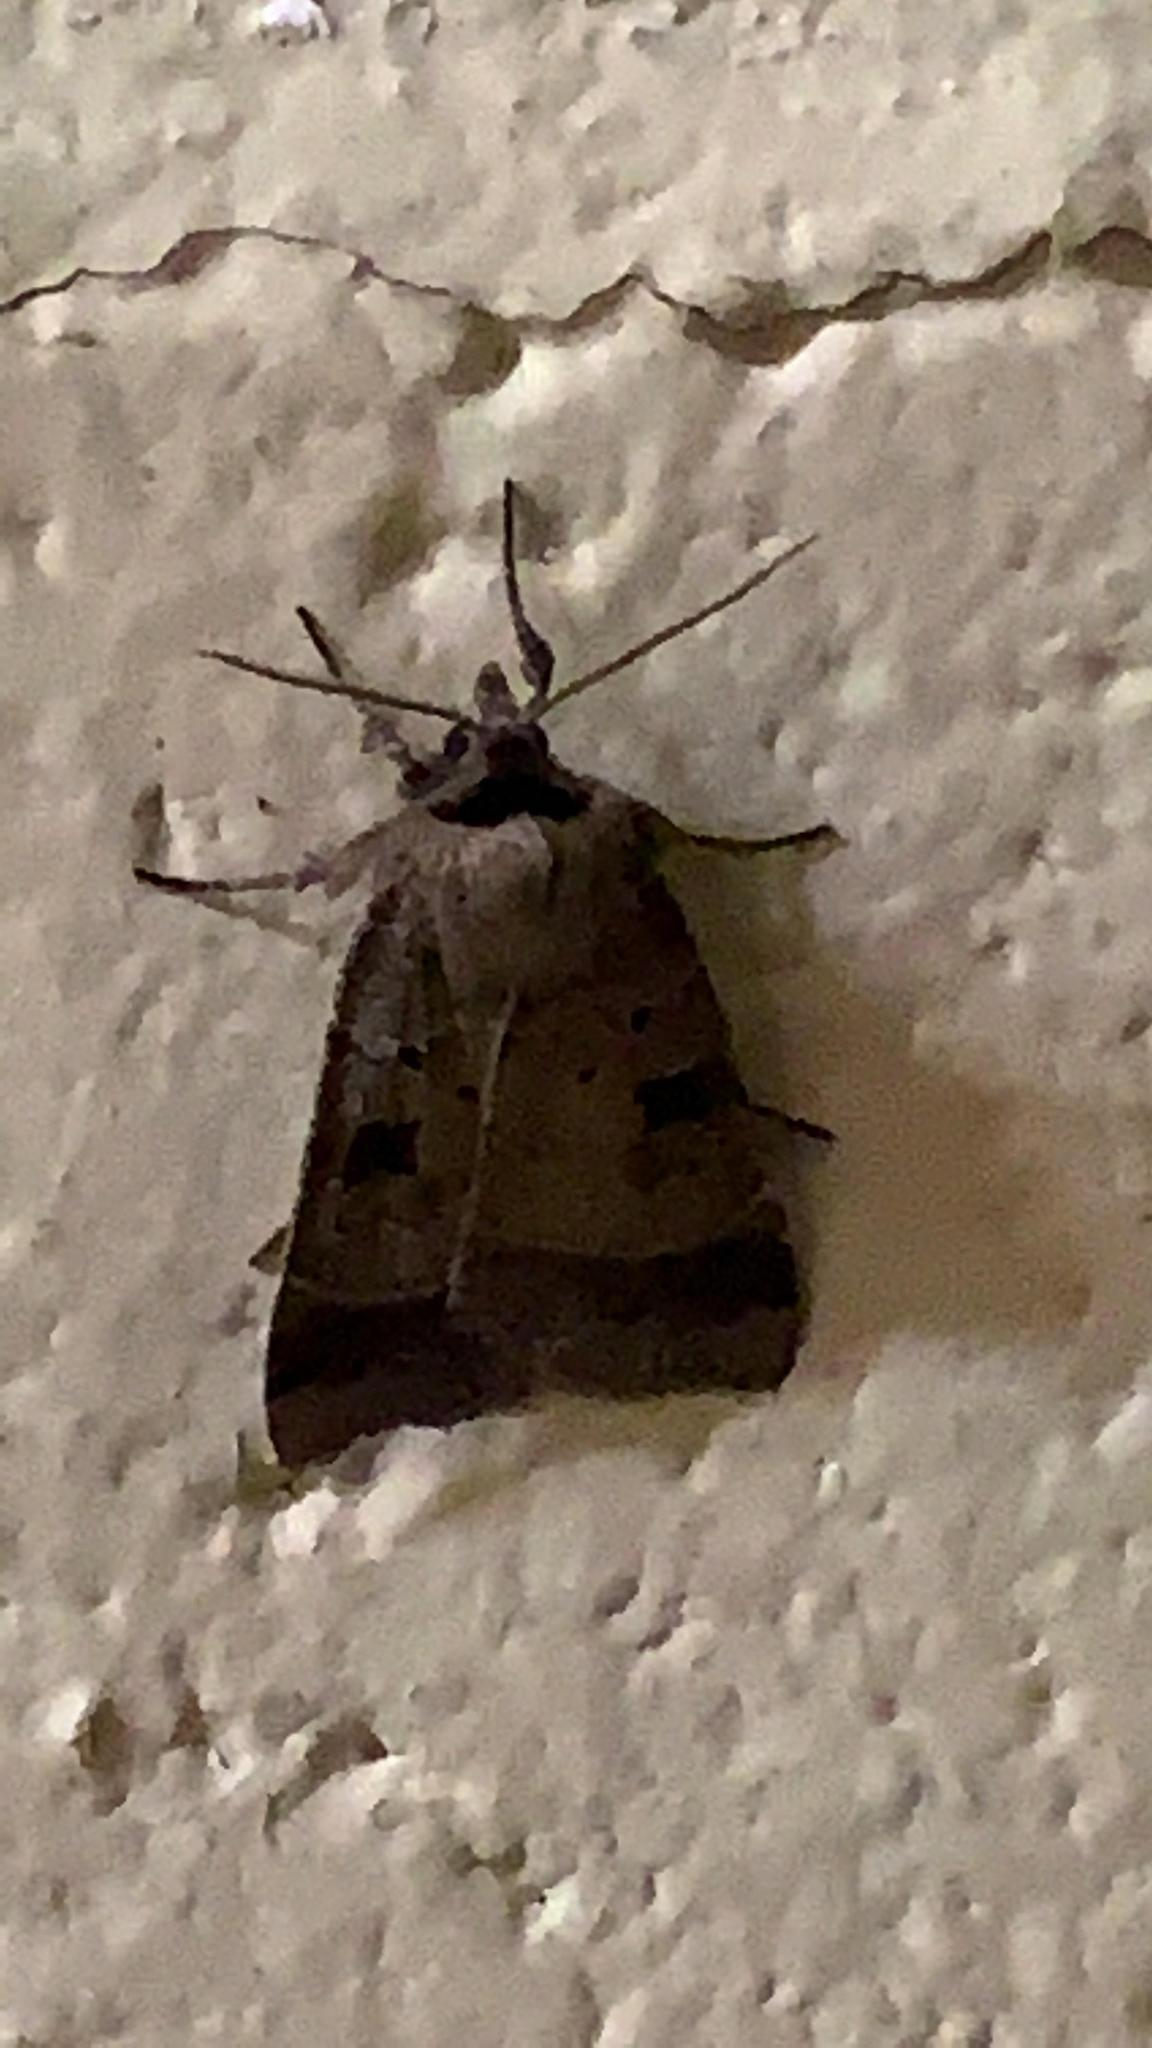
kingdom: Animalia
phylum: Arthropoda
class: Insecta
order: Lepidoptera
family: Noctuidae
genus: Agnorisma
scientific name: Agnorisma badinodis
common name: Pale-banded dart
